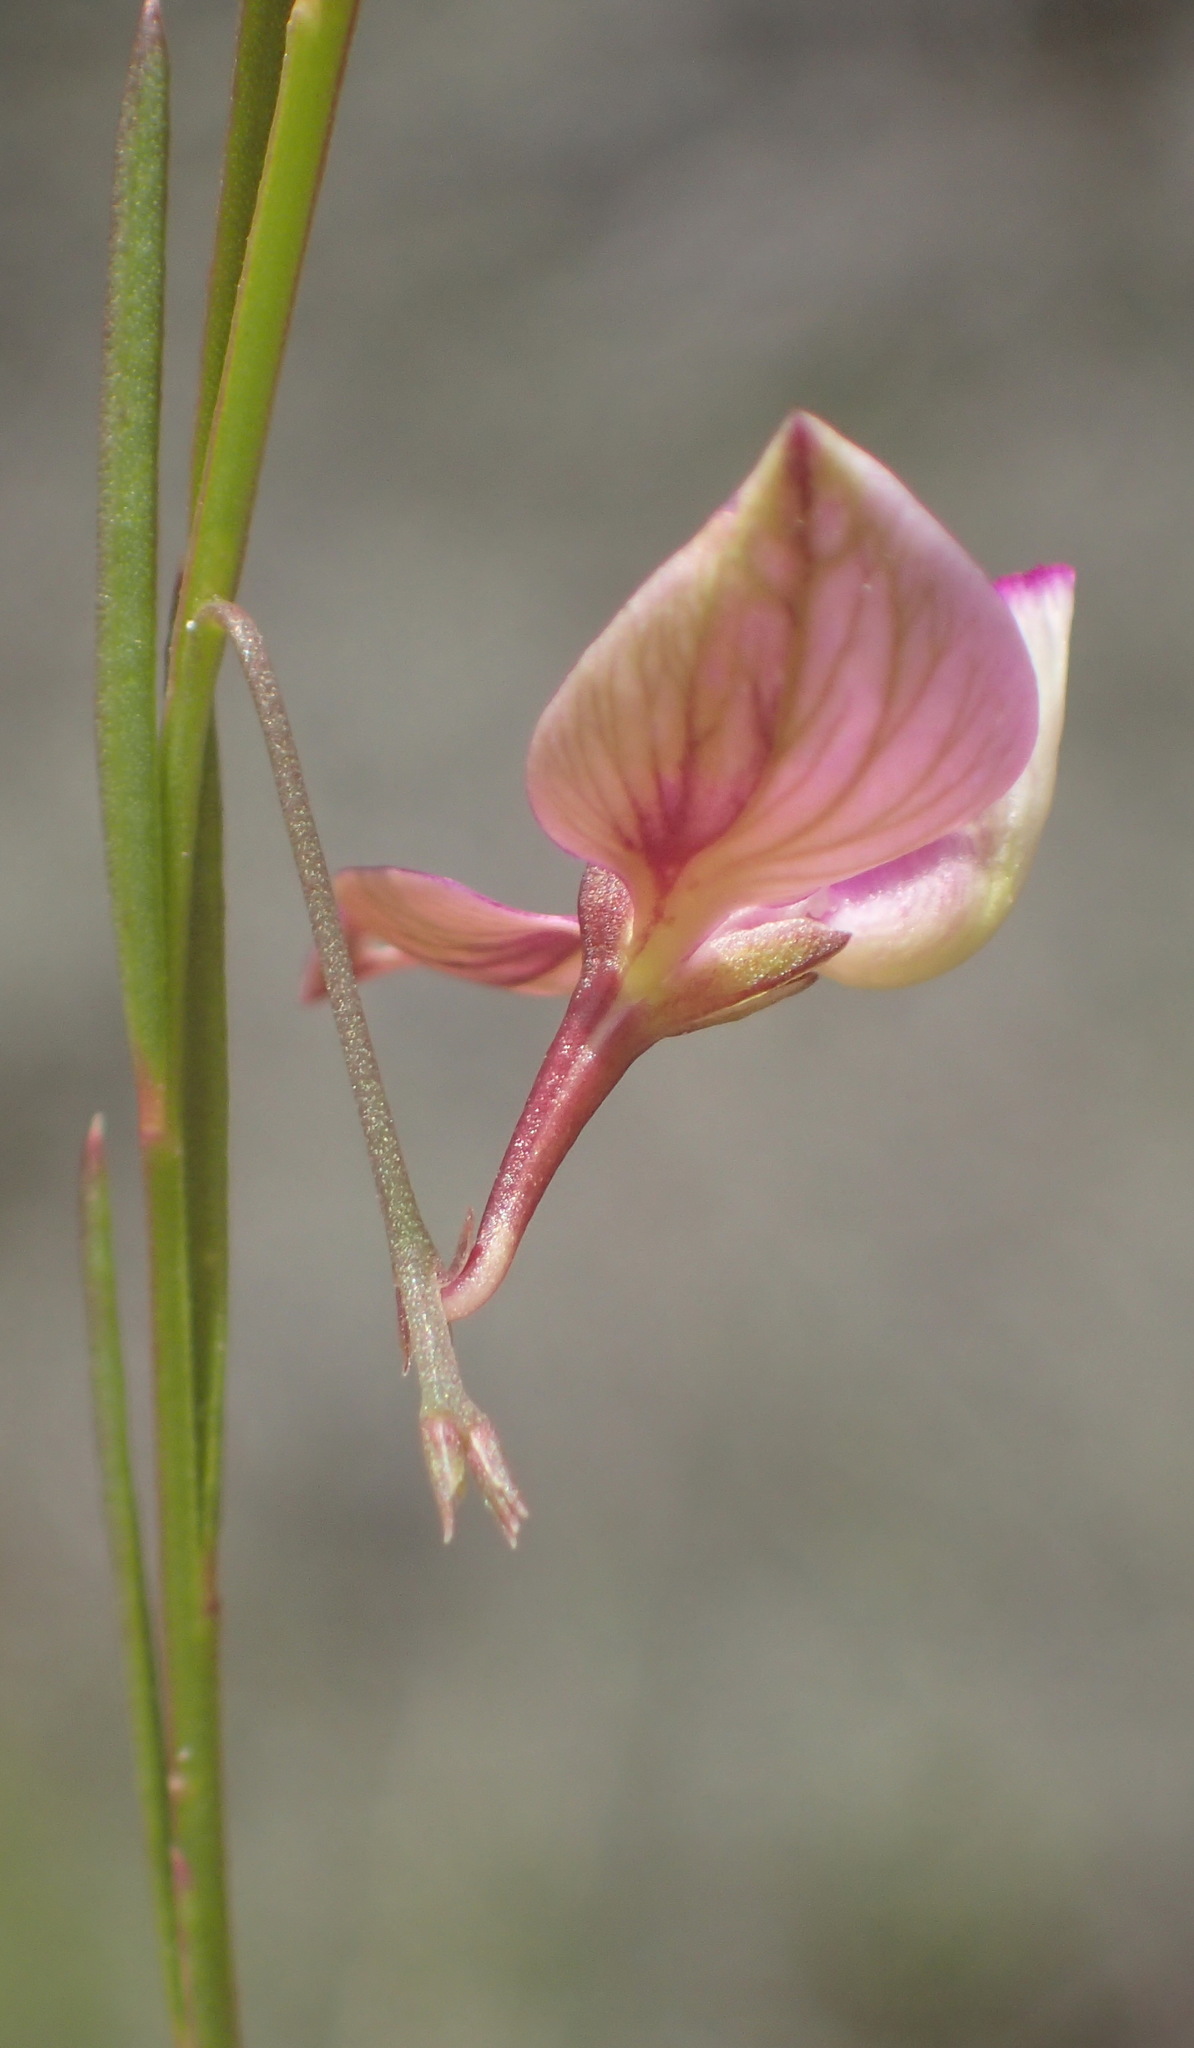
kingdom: Plantae
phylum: Tracheophyta
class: Magnoliopsida
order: Fabales
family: Polygalaceae
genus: Polygala
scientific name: Polygala refracta
